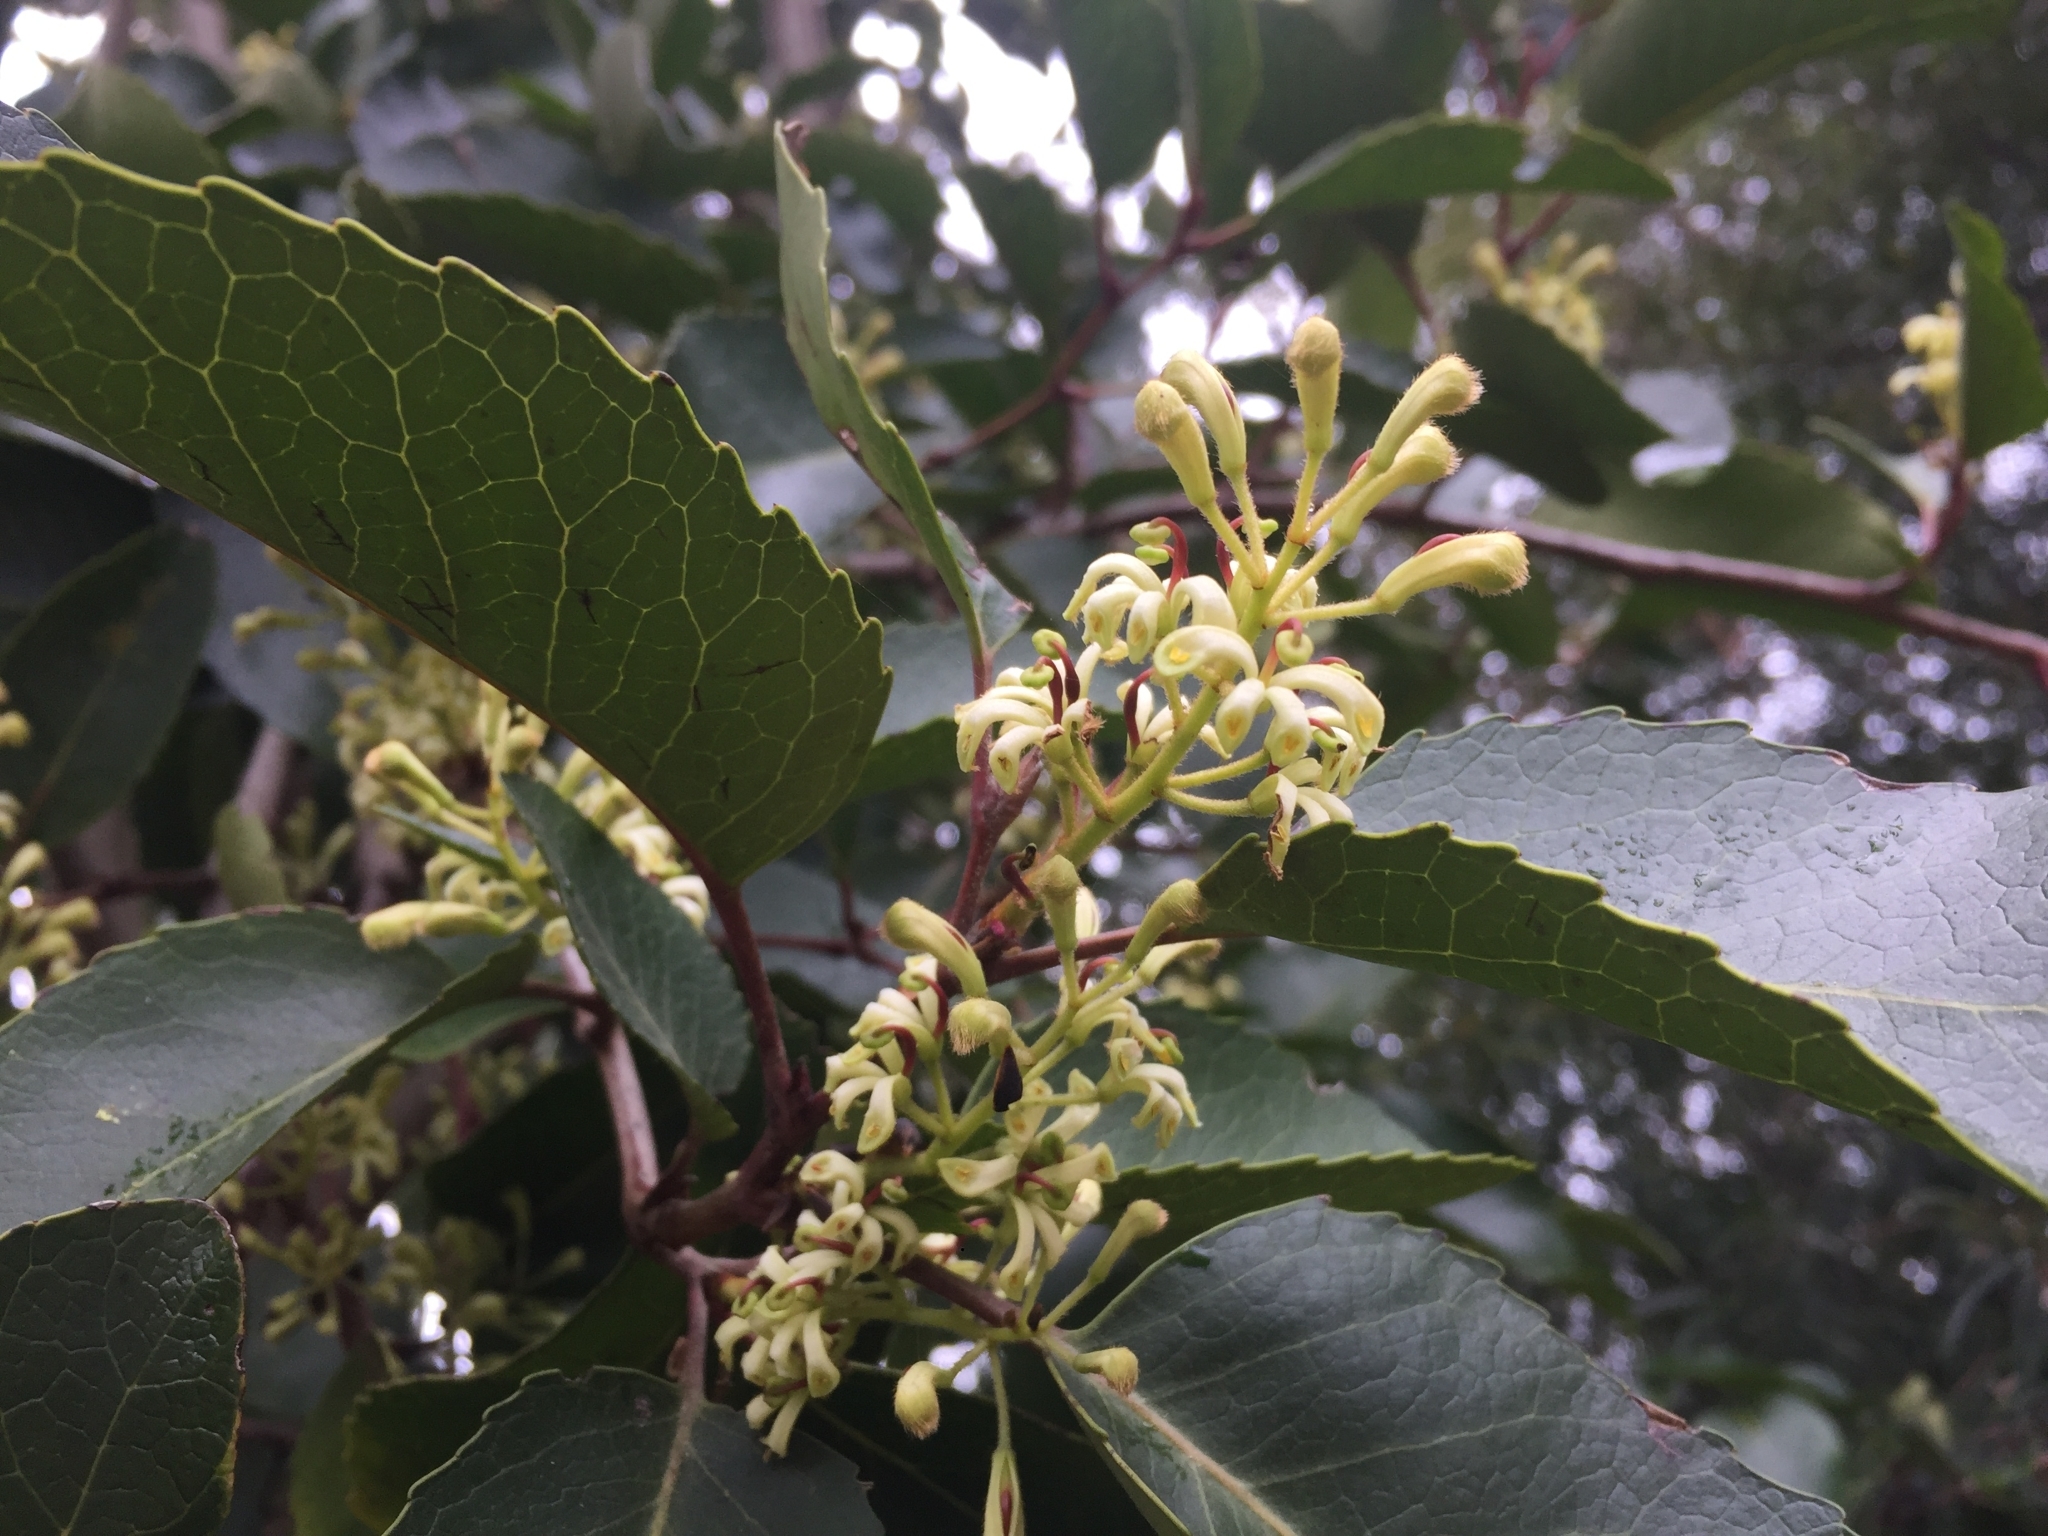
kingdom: Plantae
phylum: Tracheophyta
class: Magnoliopsida
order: Proteales
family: Proteaceae
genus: Lomatia
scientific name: Lomatia hirsuta
